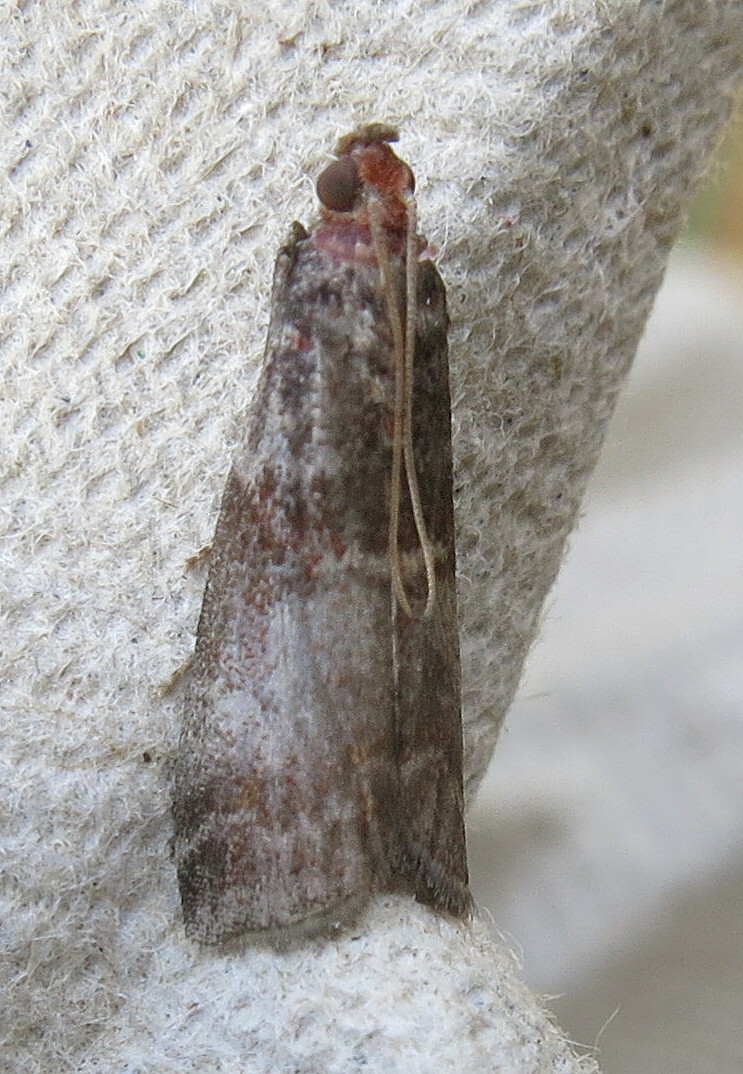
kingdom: Animalia
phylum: Arthropoda
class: Insecta
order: Lepidoptera
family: Pyralidae
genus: Acrobasis
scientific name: Acrobasis advenella
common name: Grey knot-horn
